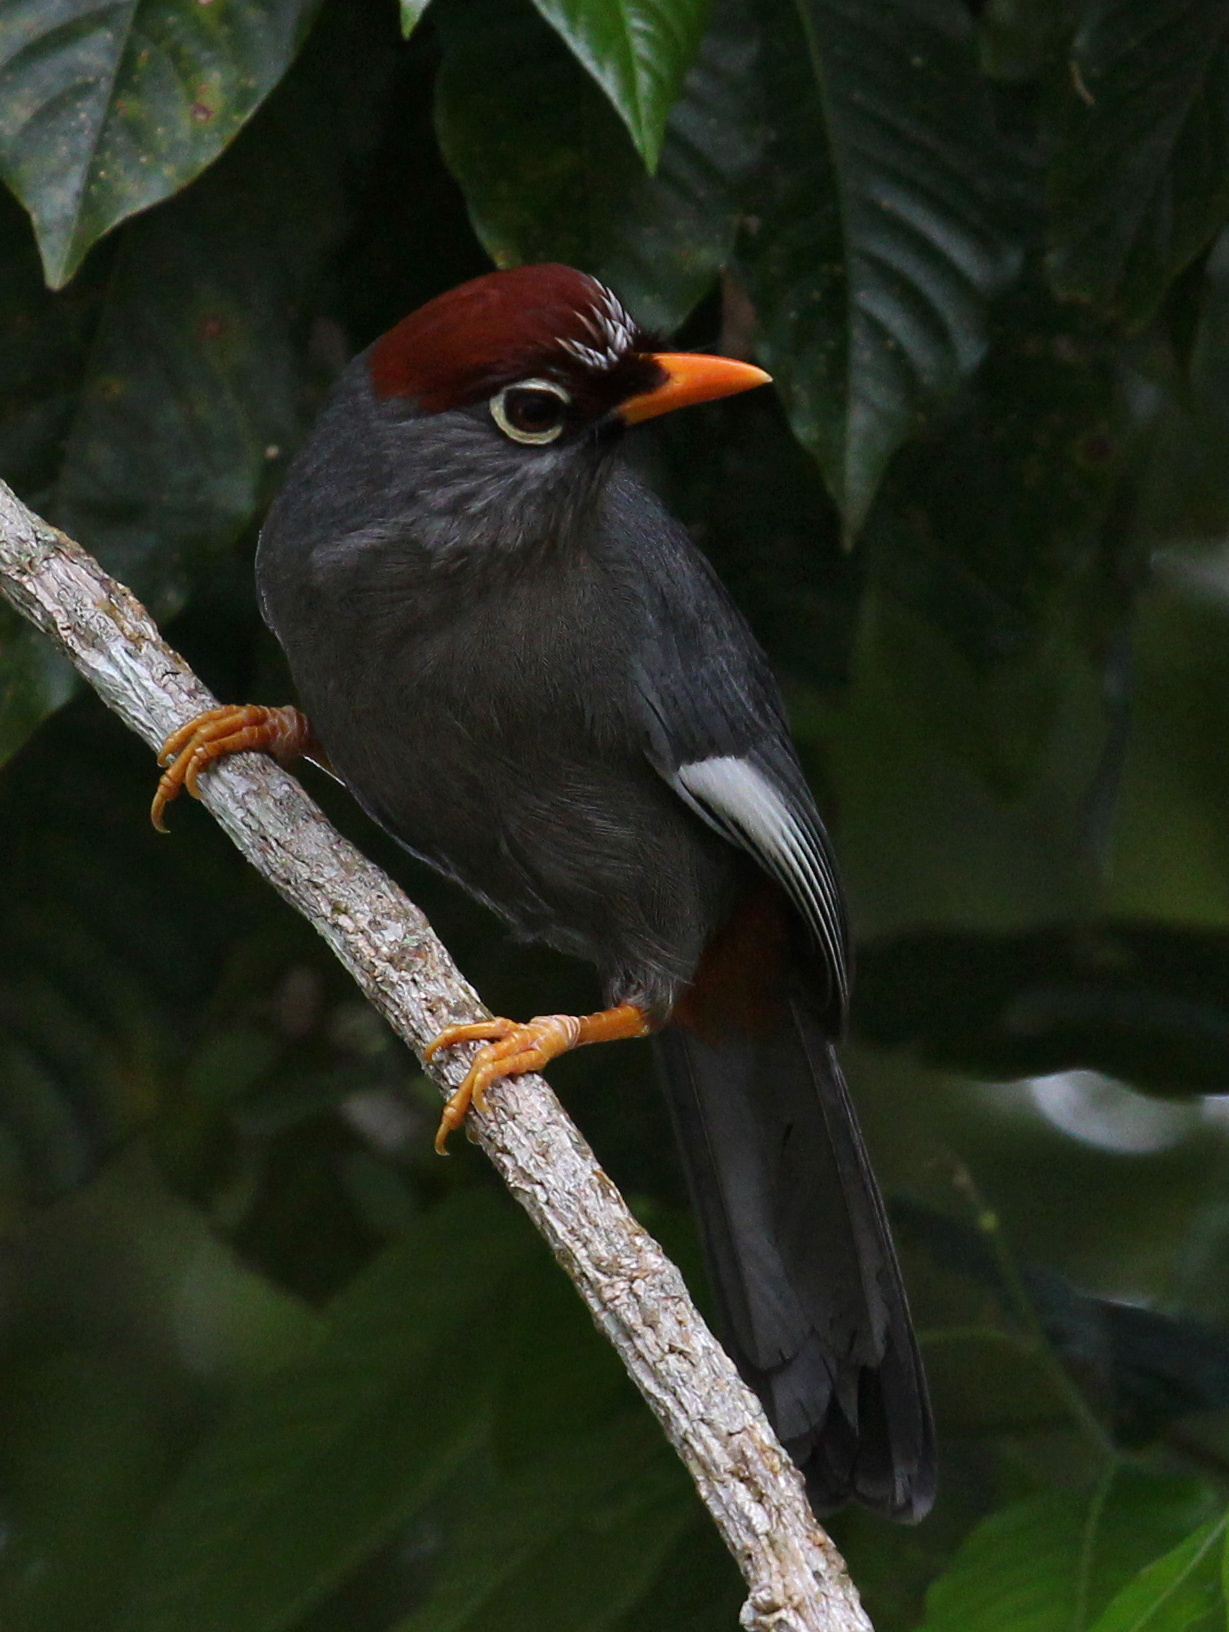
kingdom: Animalia
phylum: Chordata
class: Aves
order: Passeriformes
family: Leiothrichidae
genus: Garrulax
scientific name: Garrulax mitratus
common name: Chestnut-capped laughingthrush
